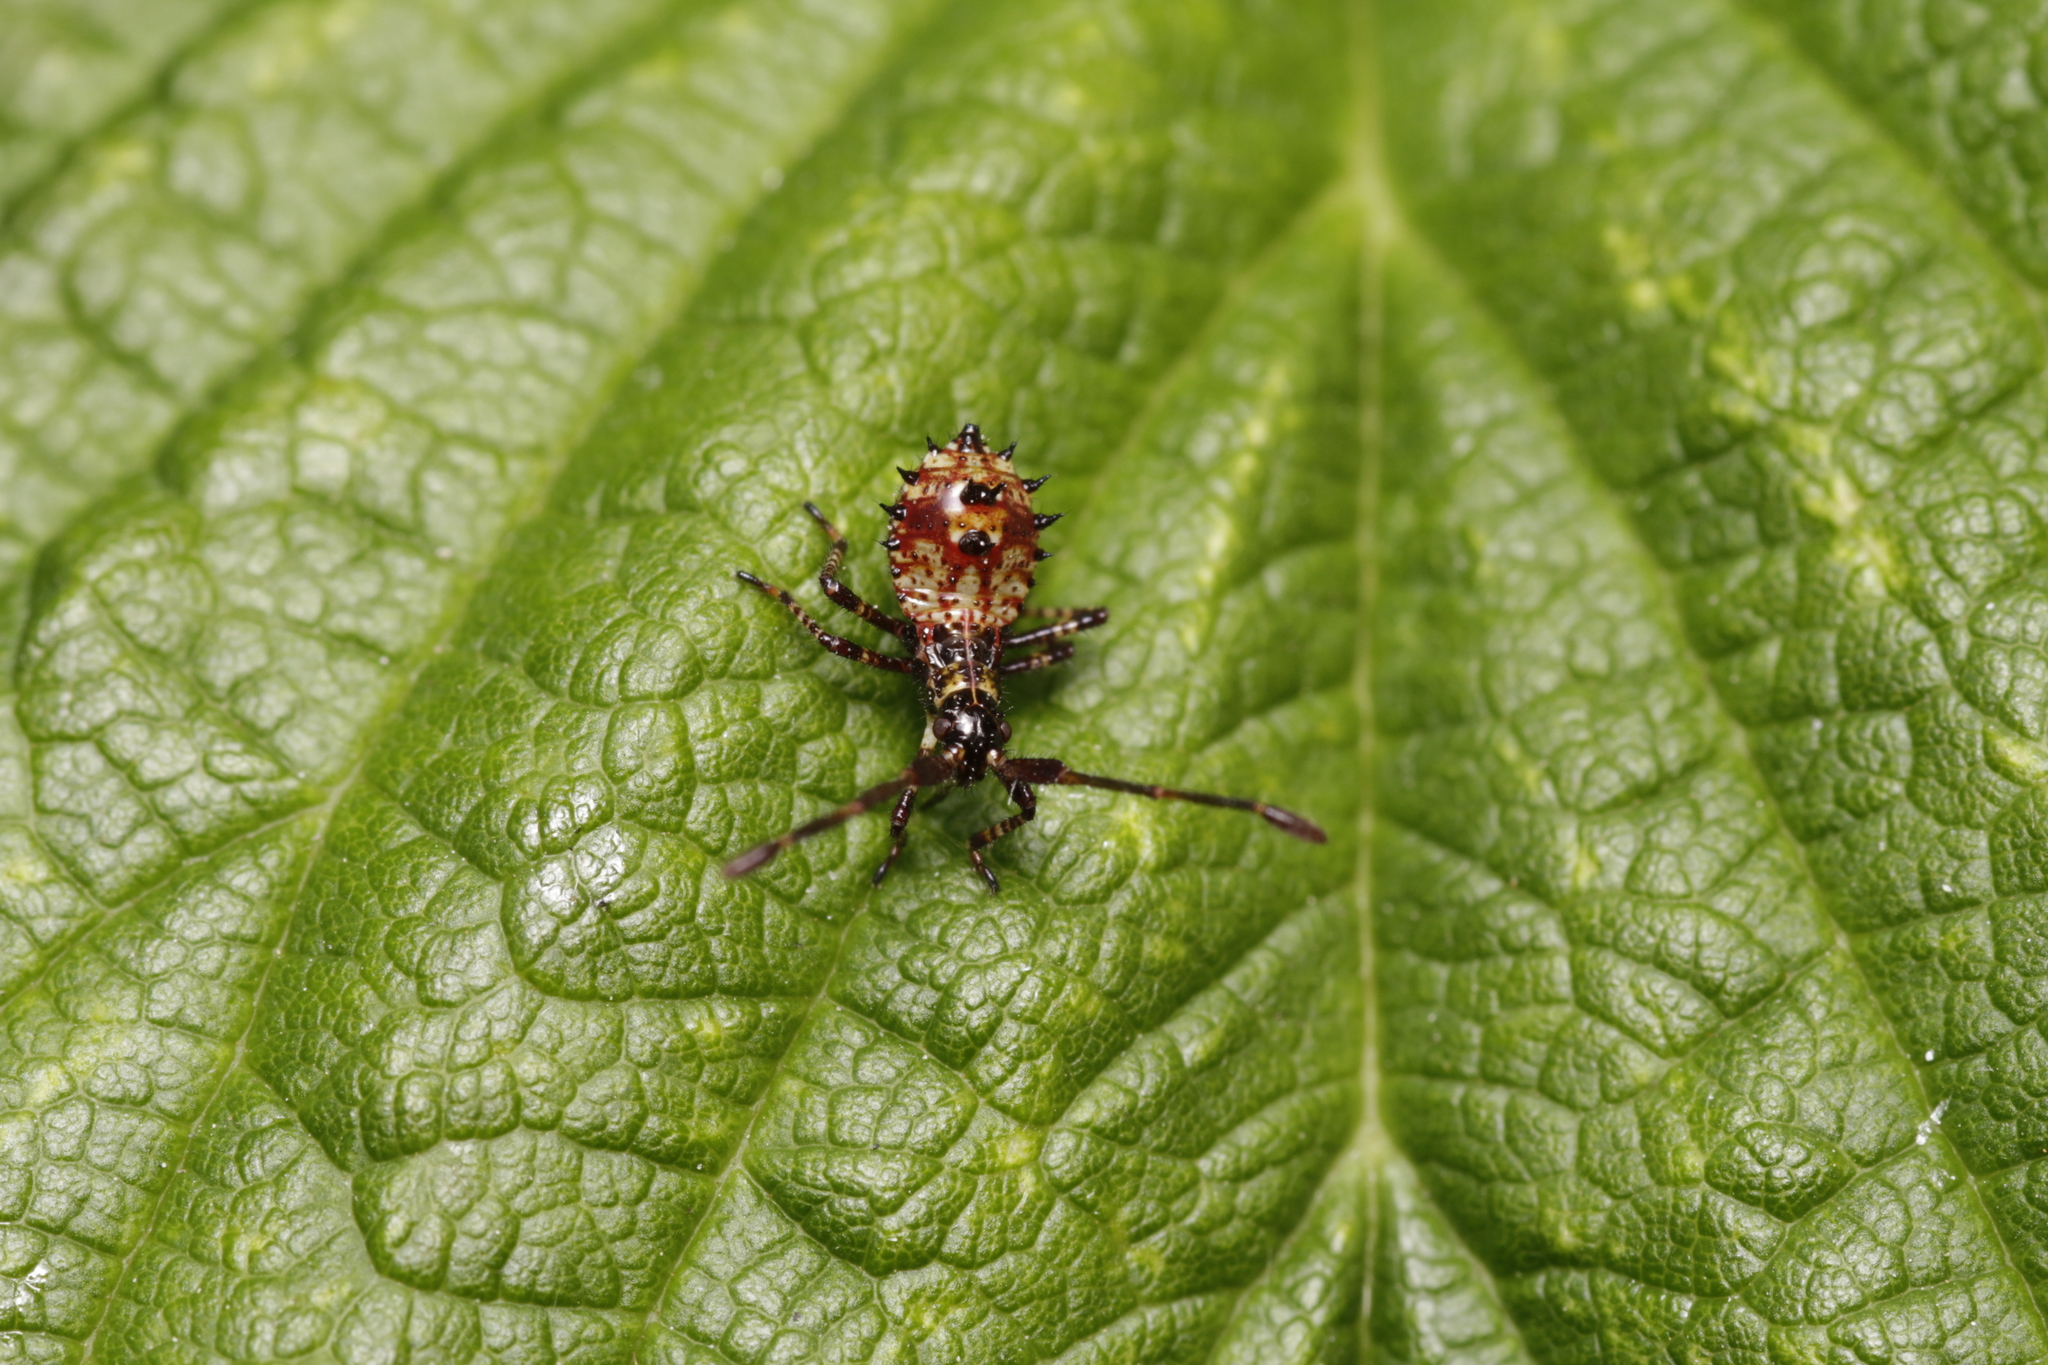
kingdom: Animalia
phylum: Arthropoda
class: Insecta
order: Hemiptera
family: Coreidae
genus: Coreus
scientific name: Coreus marginatus
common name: Dock bug
